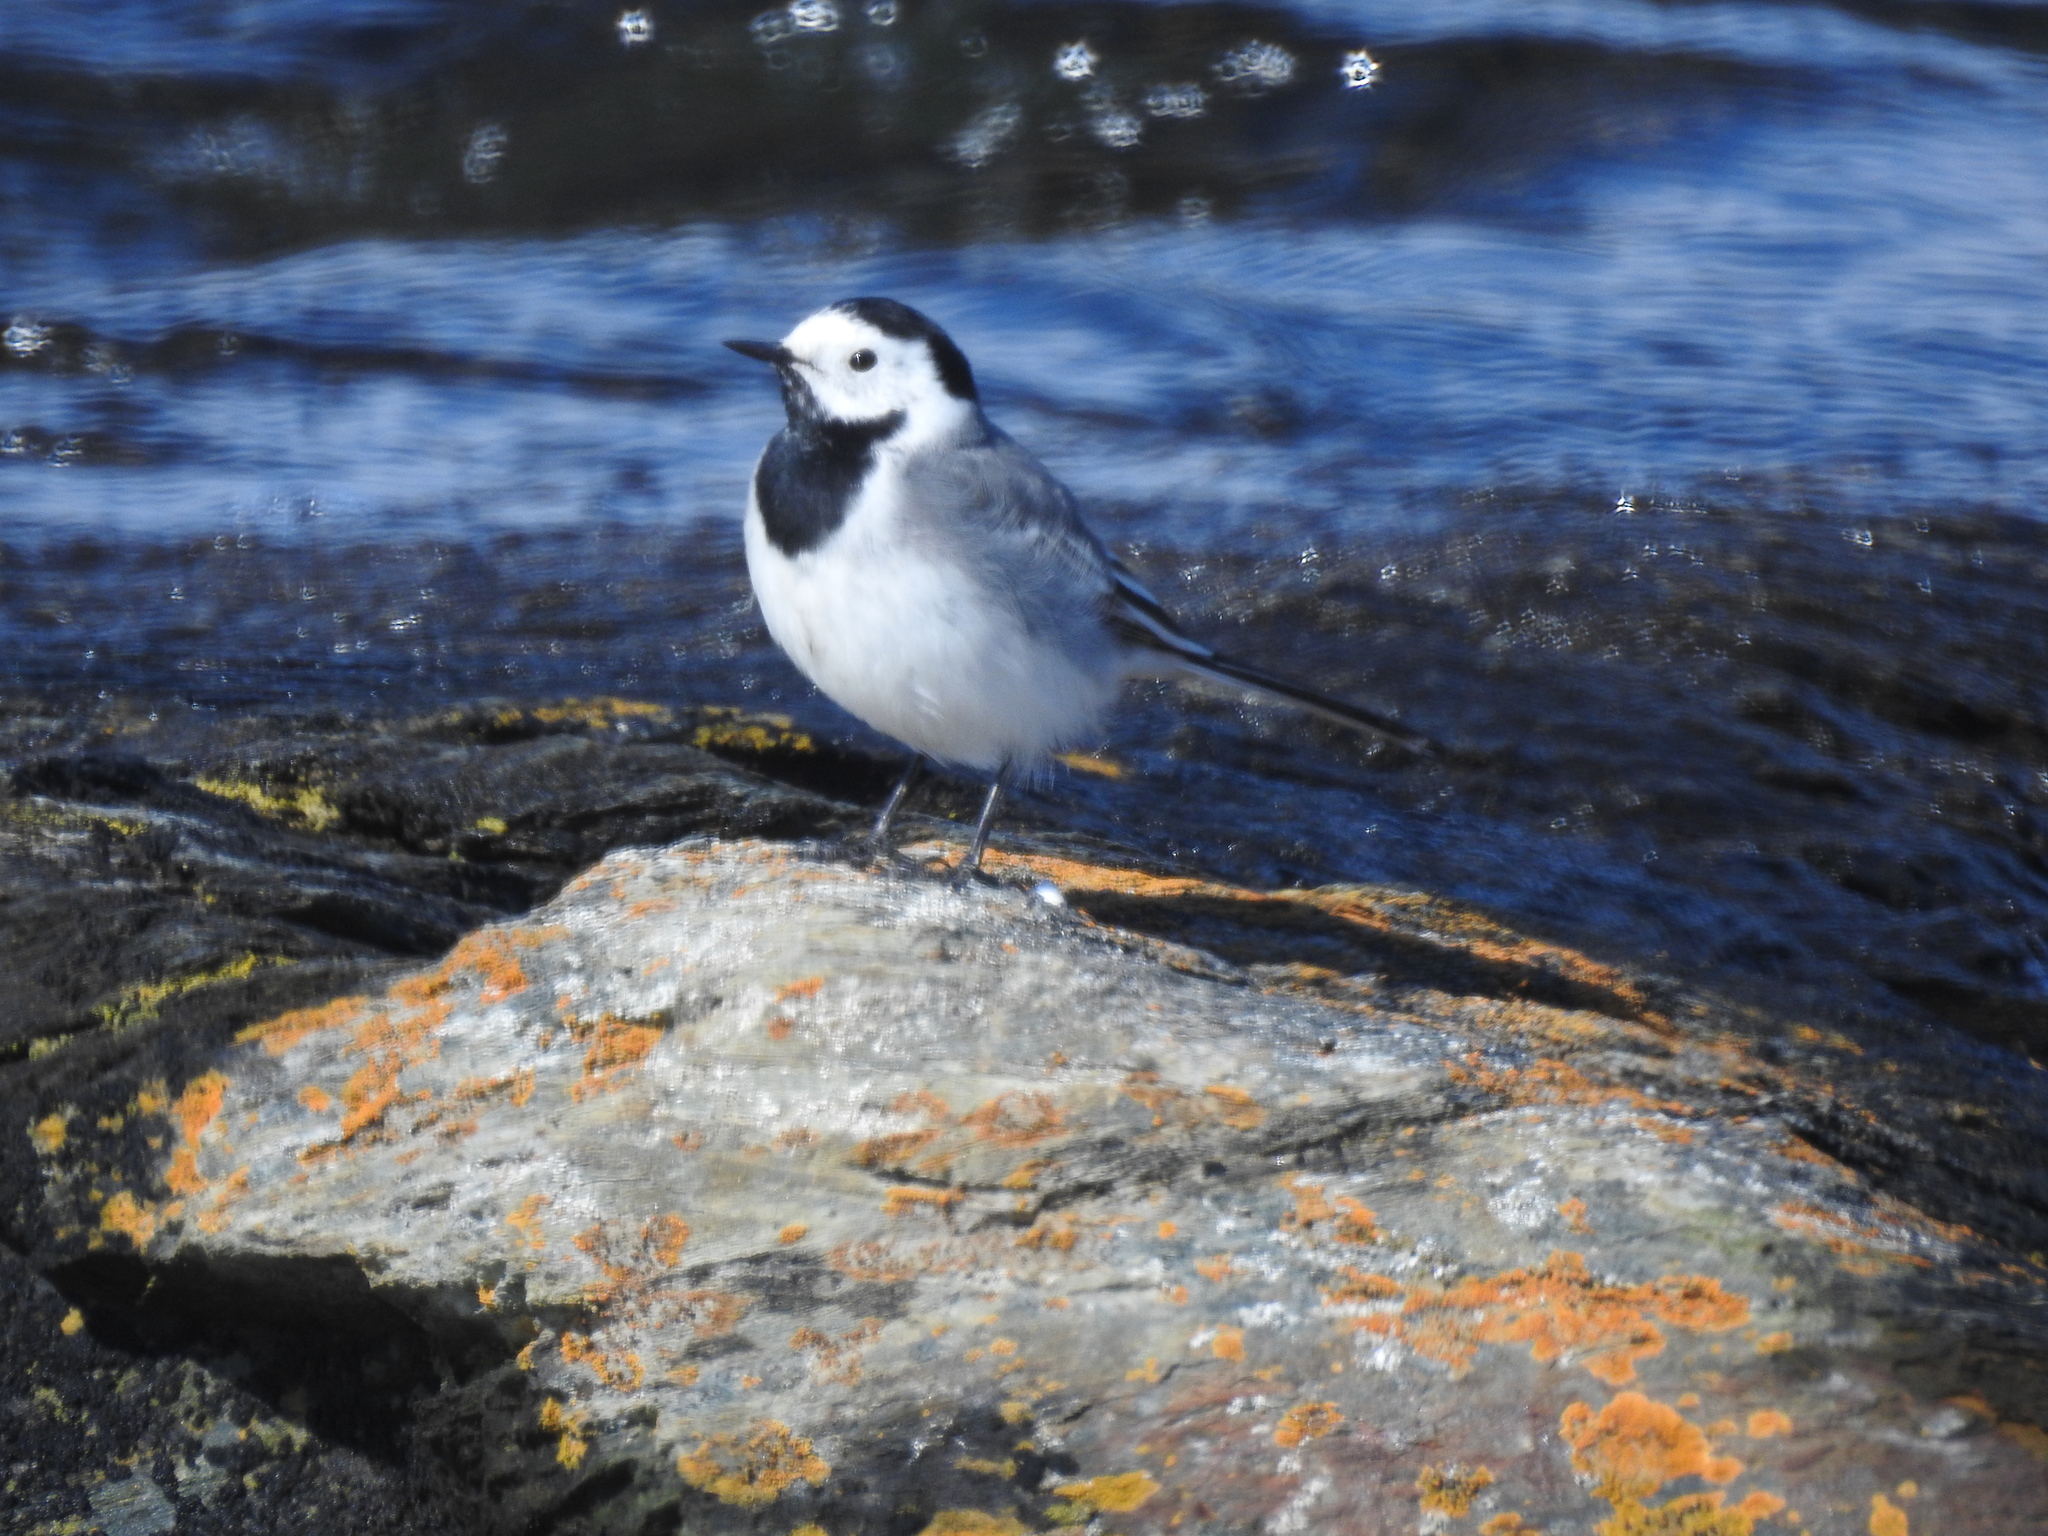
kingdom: Animalia
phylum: Chordata
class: Aves
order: Passeriformes
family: Motacillidae
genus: Motacilla
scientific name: Motacilla alba
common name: White wagtail
